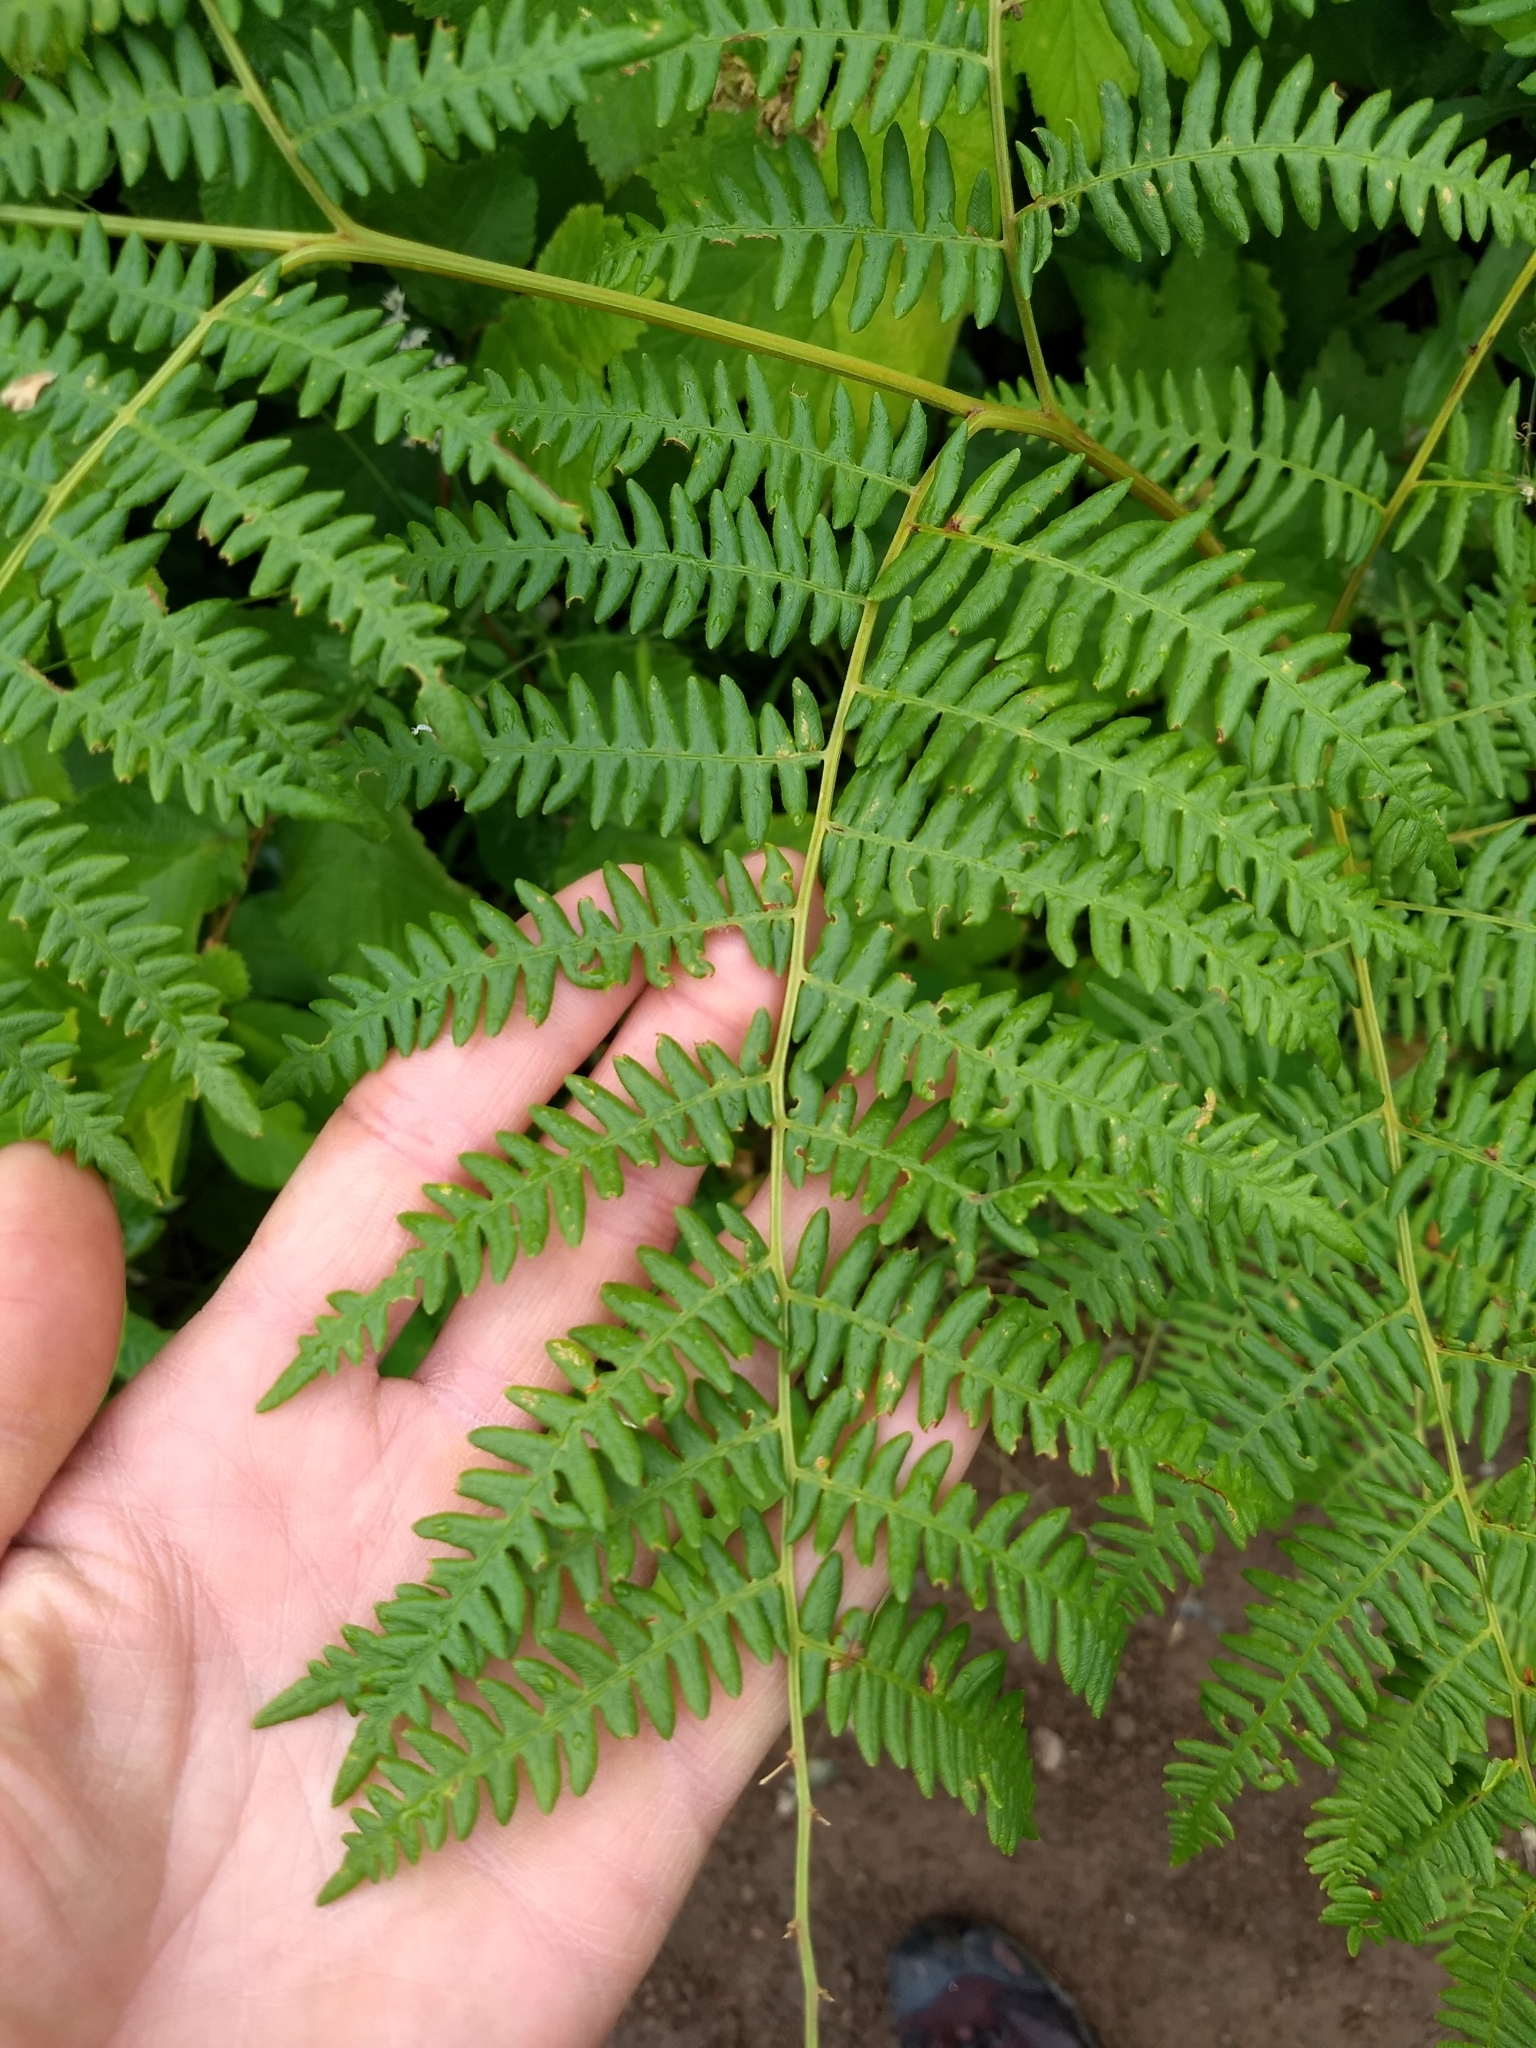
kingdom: Plantae
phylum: Tracheophyta
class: Polypodiopsida
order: Polypodiales
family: Dennstaedtiaceae
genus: Pteridium
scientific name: Pteridium aquilinum
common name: Bracken
